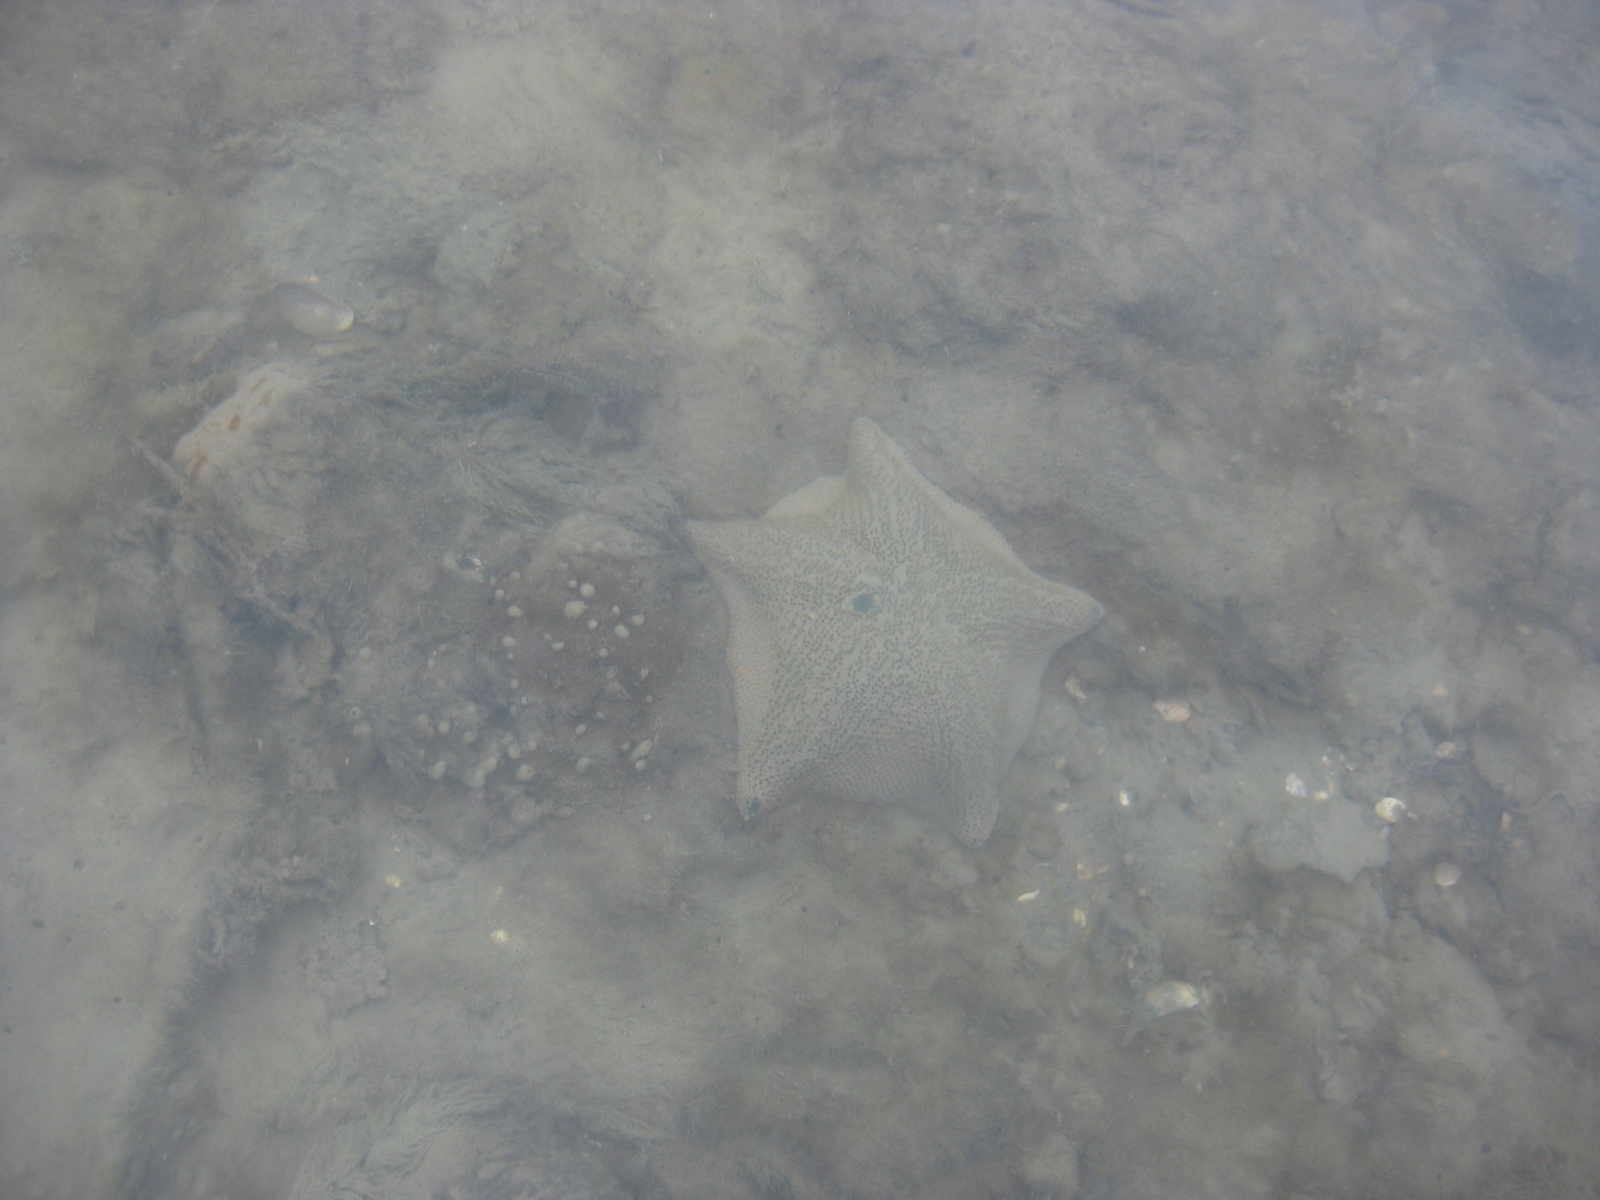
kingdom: Animalia
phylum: Echinodermata
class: Asteroidea
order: Valvatida
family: Asterinidae
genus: Patiriella
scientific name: Patiriella regularis
